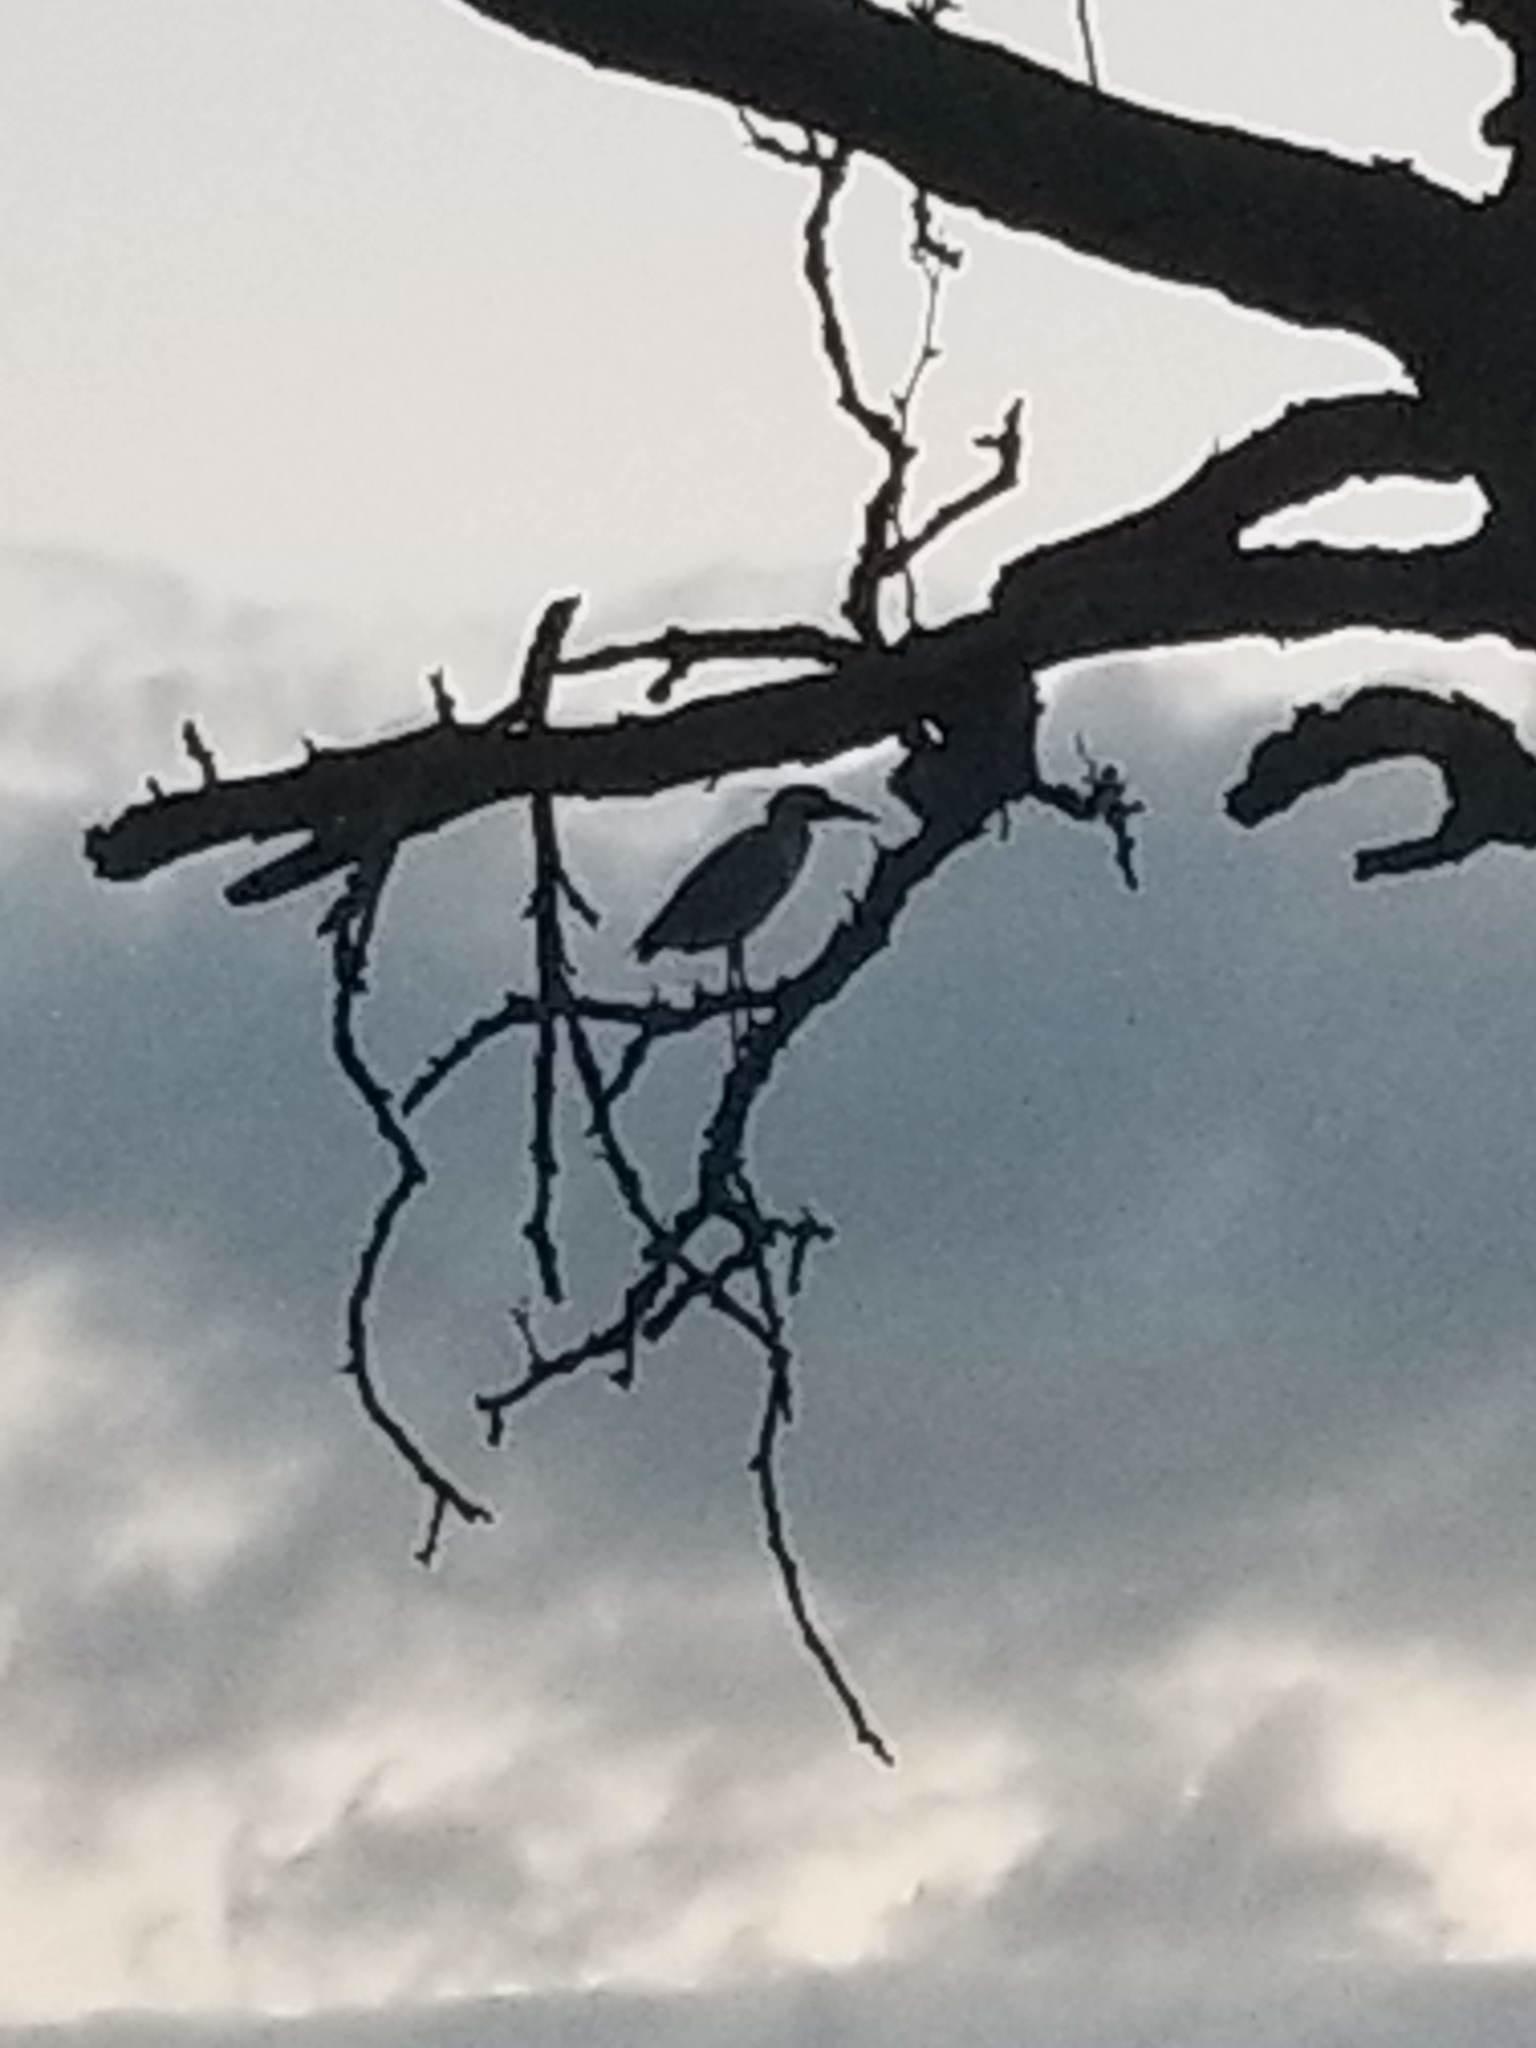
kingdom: Animalia
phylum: Chordata
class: Aves
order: Pelecaniformes
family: Ardeidae
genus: Nyctanassa
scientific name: Nyctanassa violacea
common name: Yellow-crowned night heron
